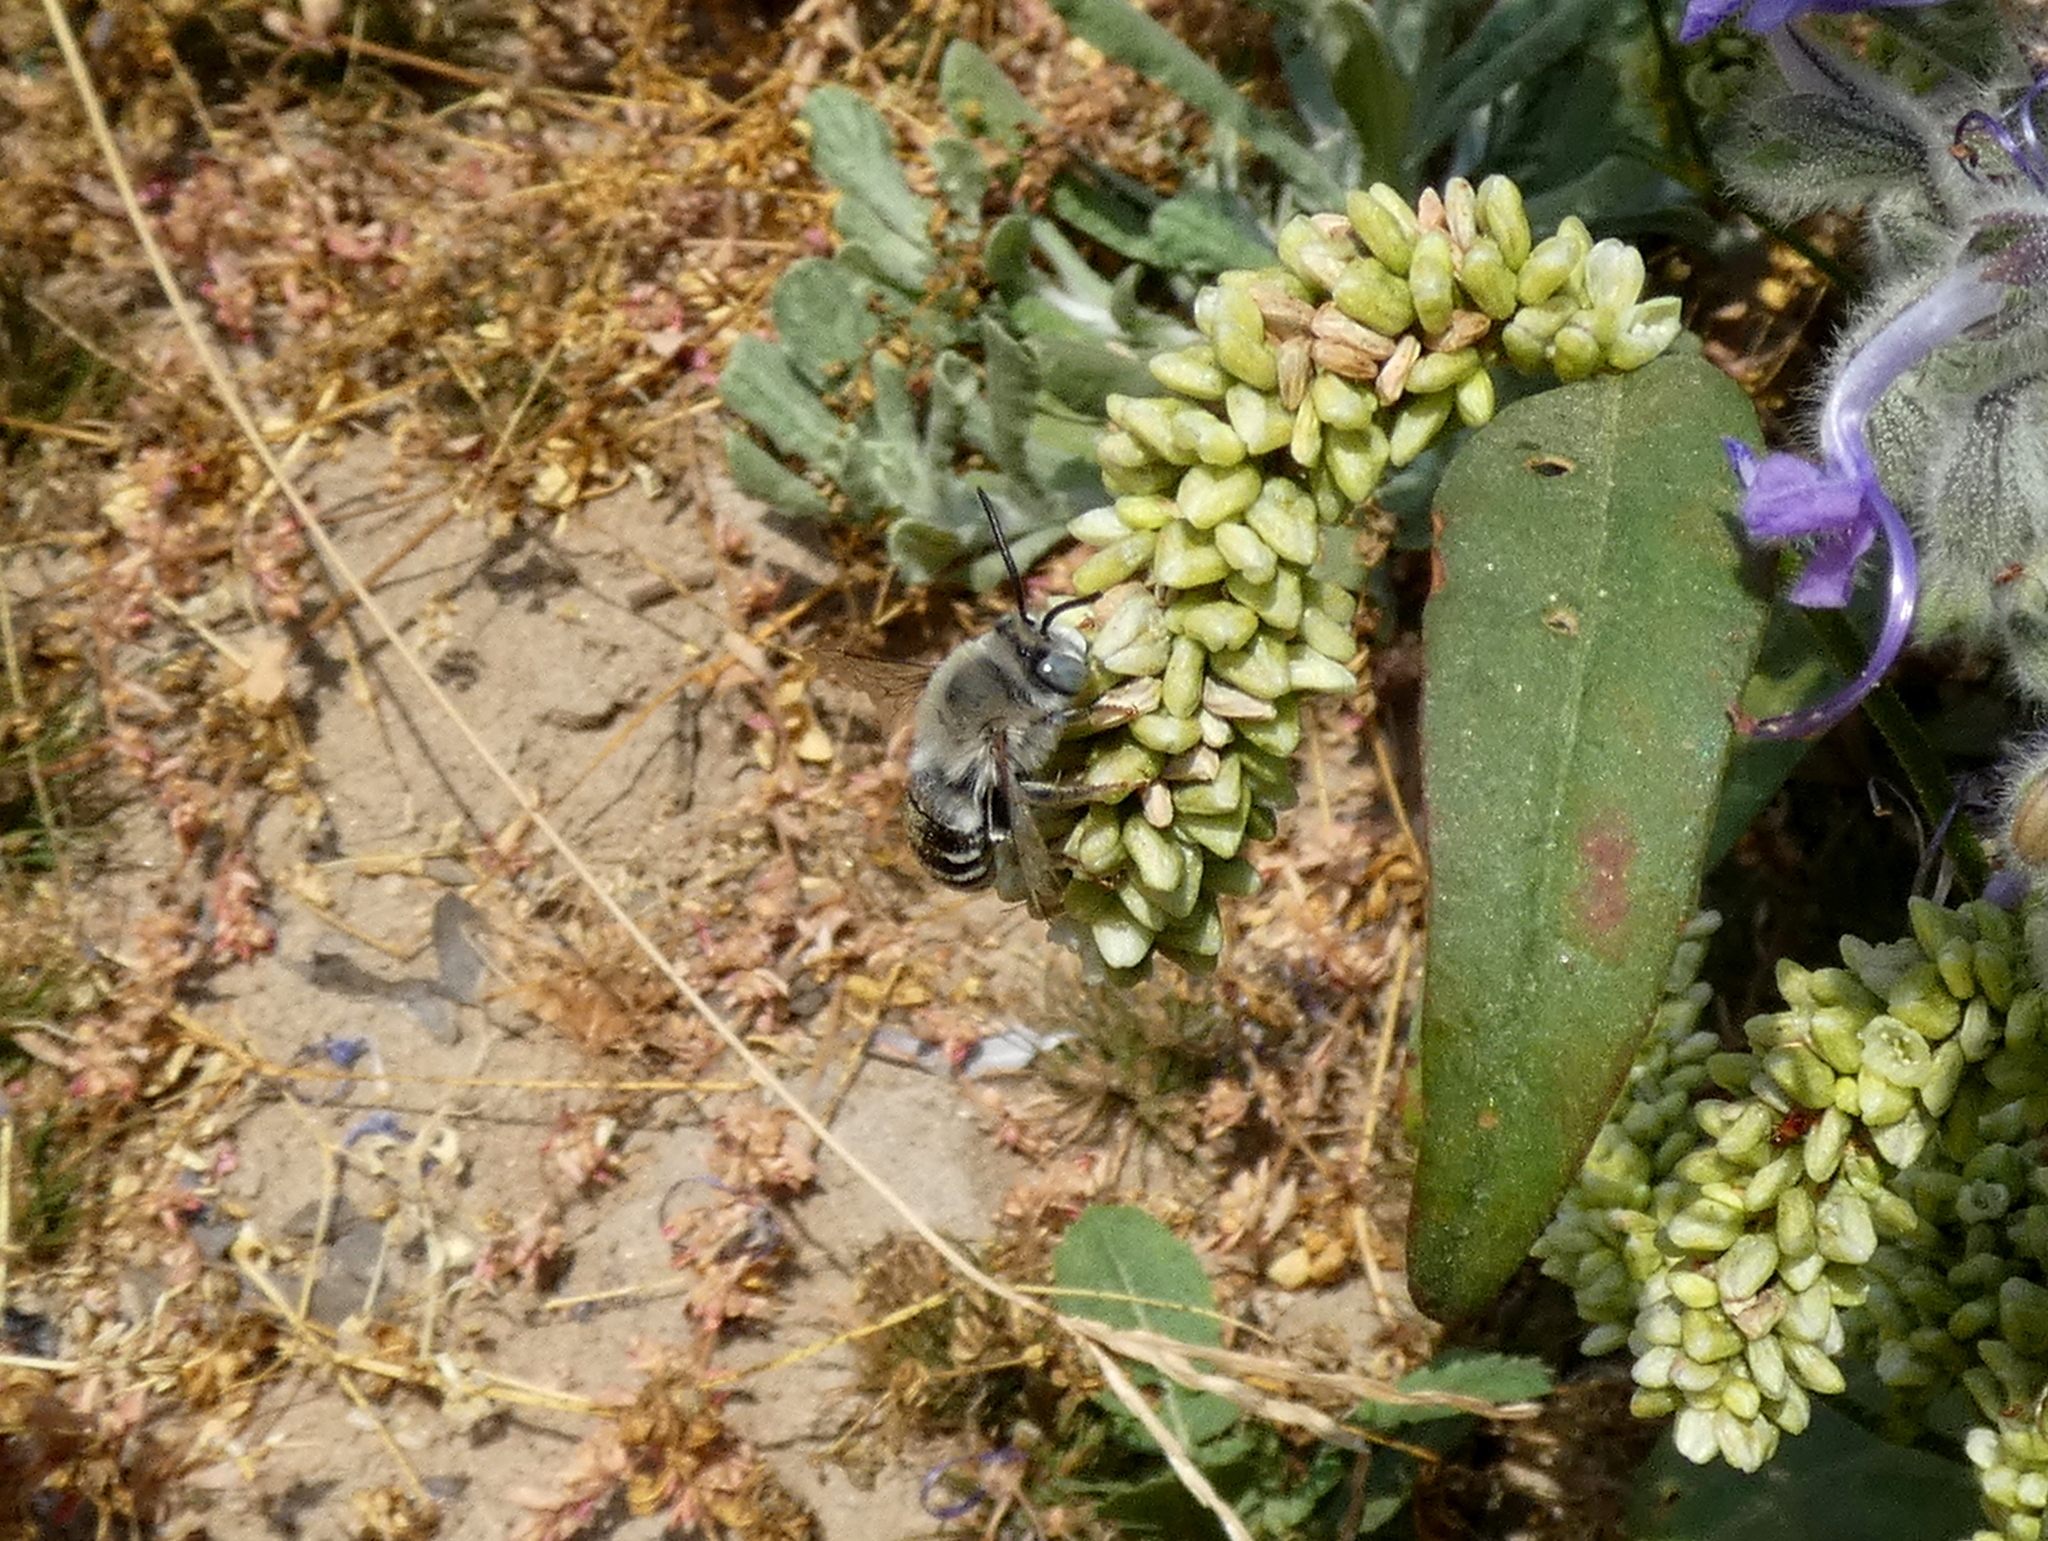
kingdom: Animalia
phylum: Arthropoda
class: Insecta
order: Hymenoptera
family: Apidae
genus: Anthophora
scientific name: Anthophora urbana
